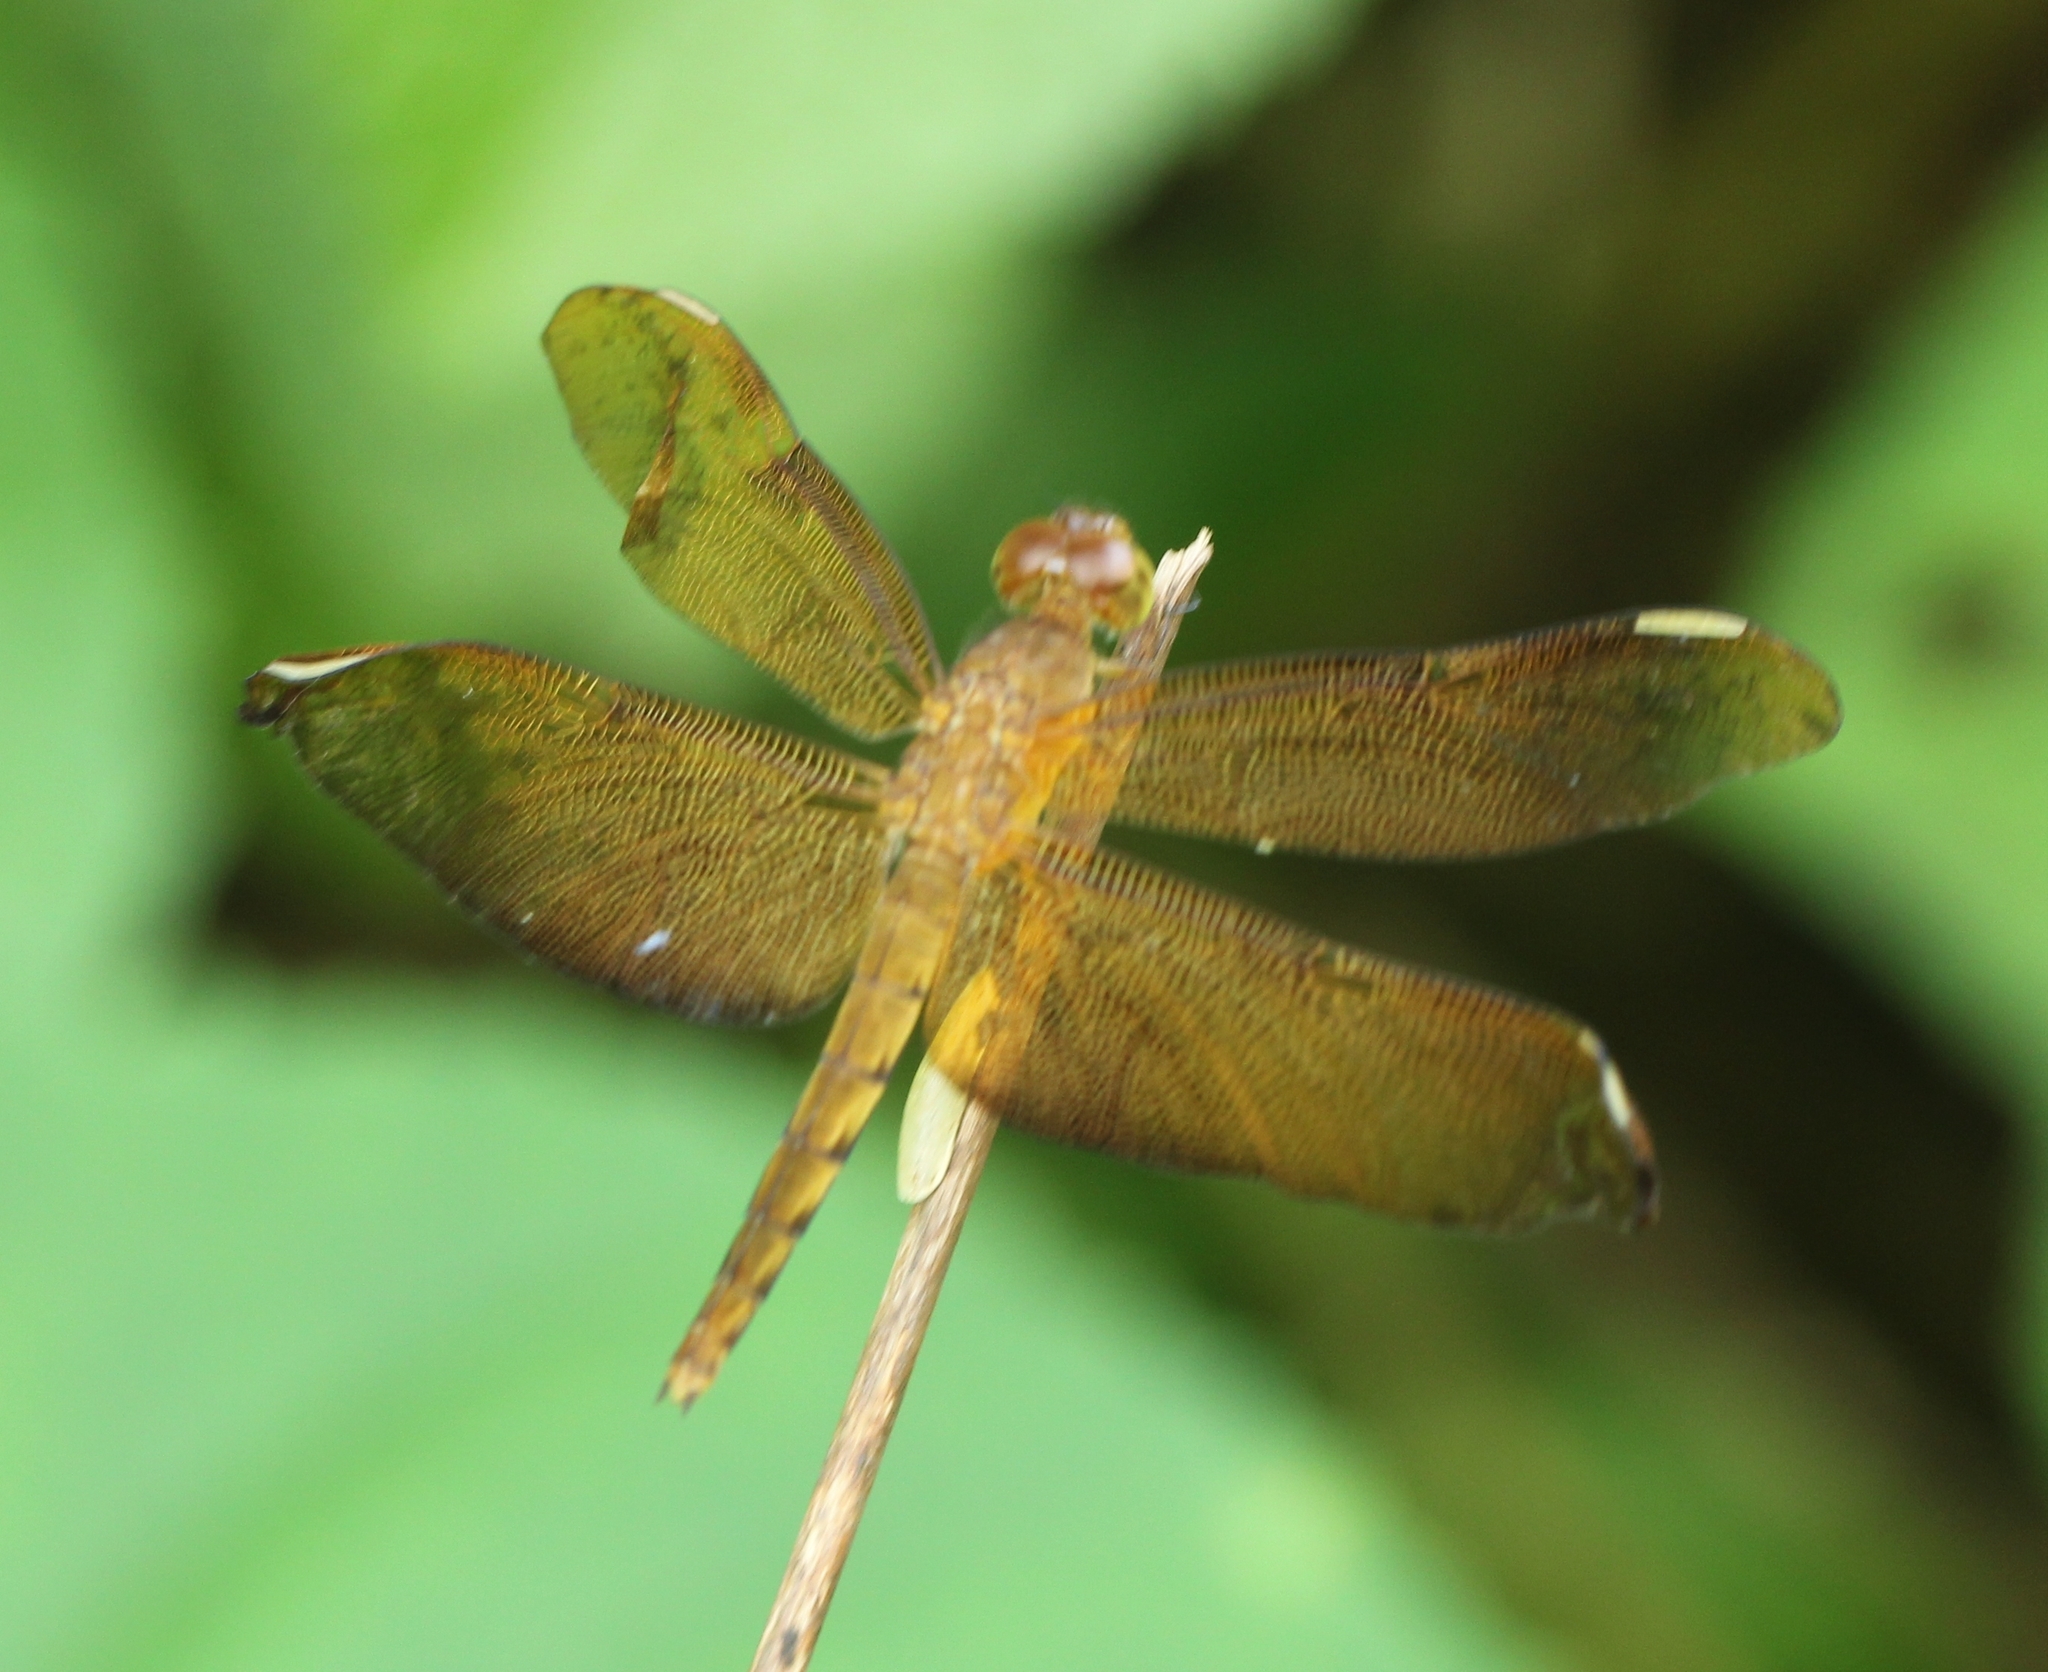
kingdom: Animalia
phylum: Arthropoda
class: Insecta
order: Odonata
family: Libellulidae
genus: Neurothemis
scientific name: Neurothemis fulvia
